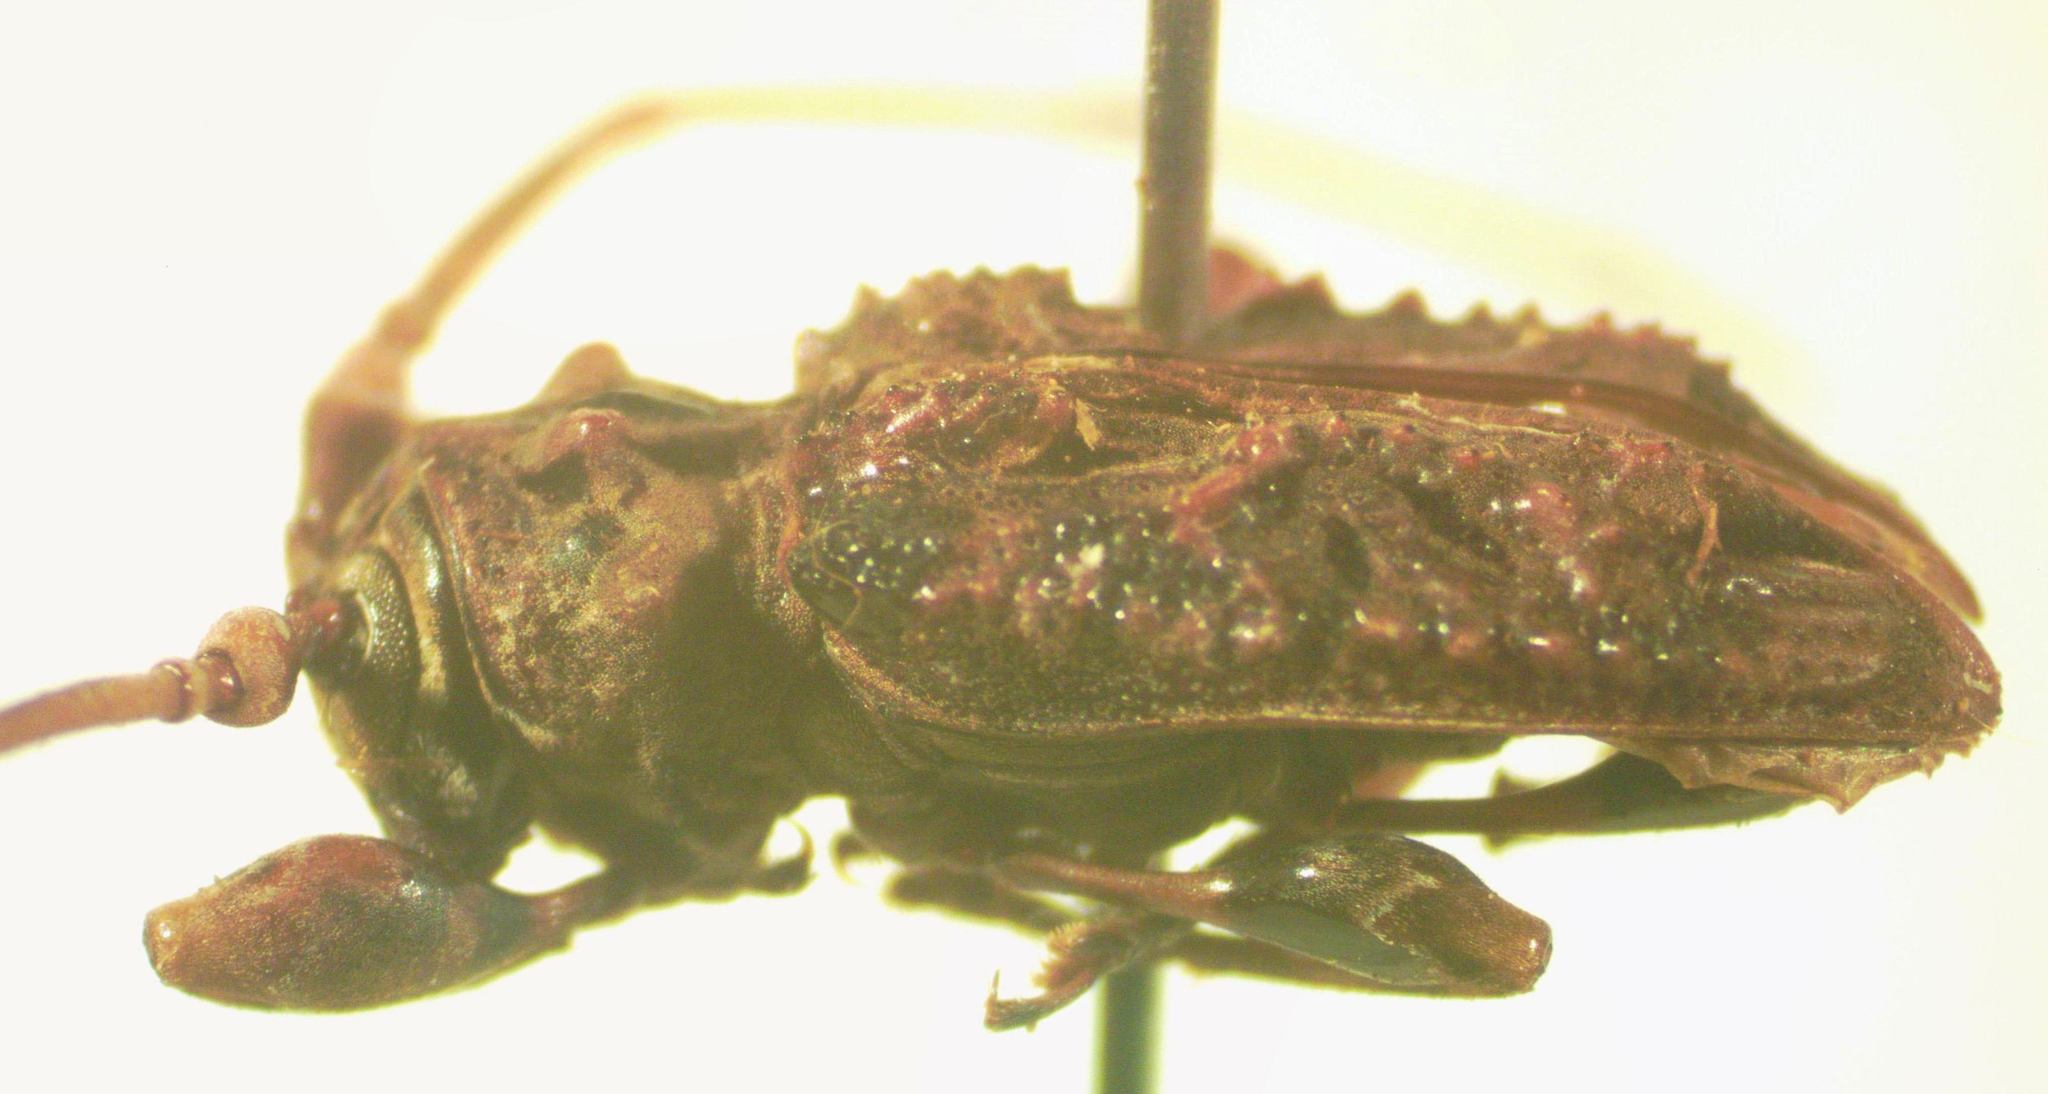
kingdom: Animalia
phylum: Arthropoda
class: Insecta
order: Coleoptera
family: Cerambycidae
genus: Macronemus
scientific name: Macronemus asperulus
